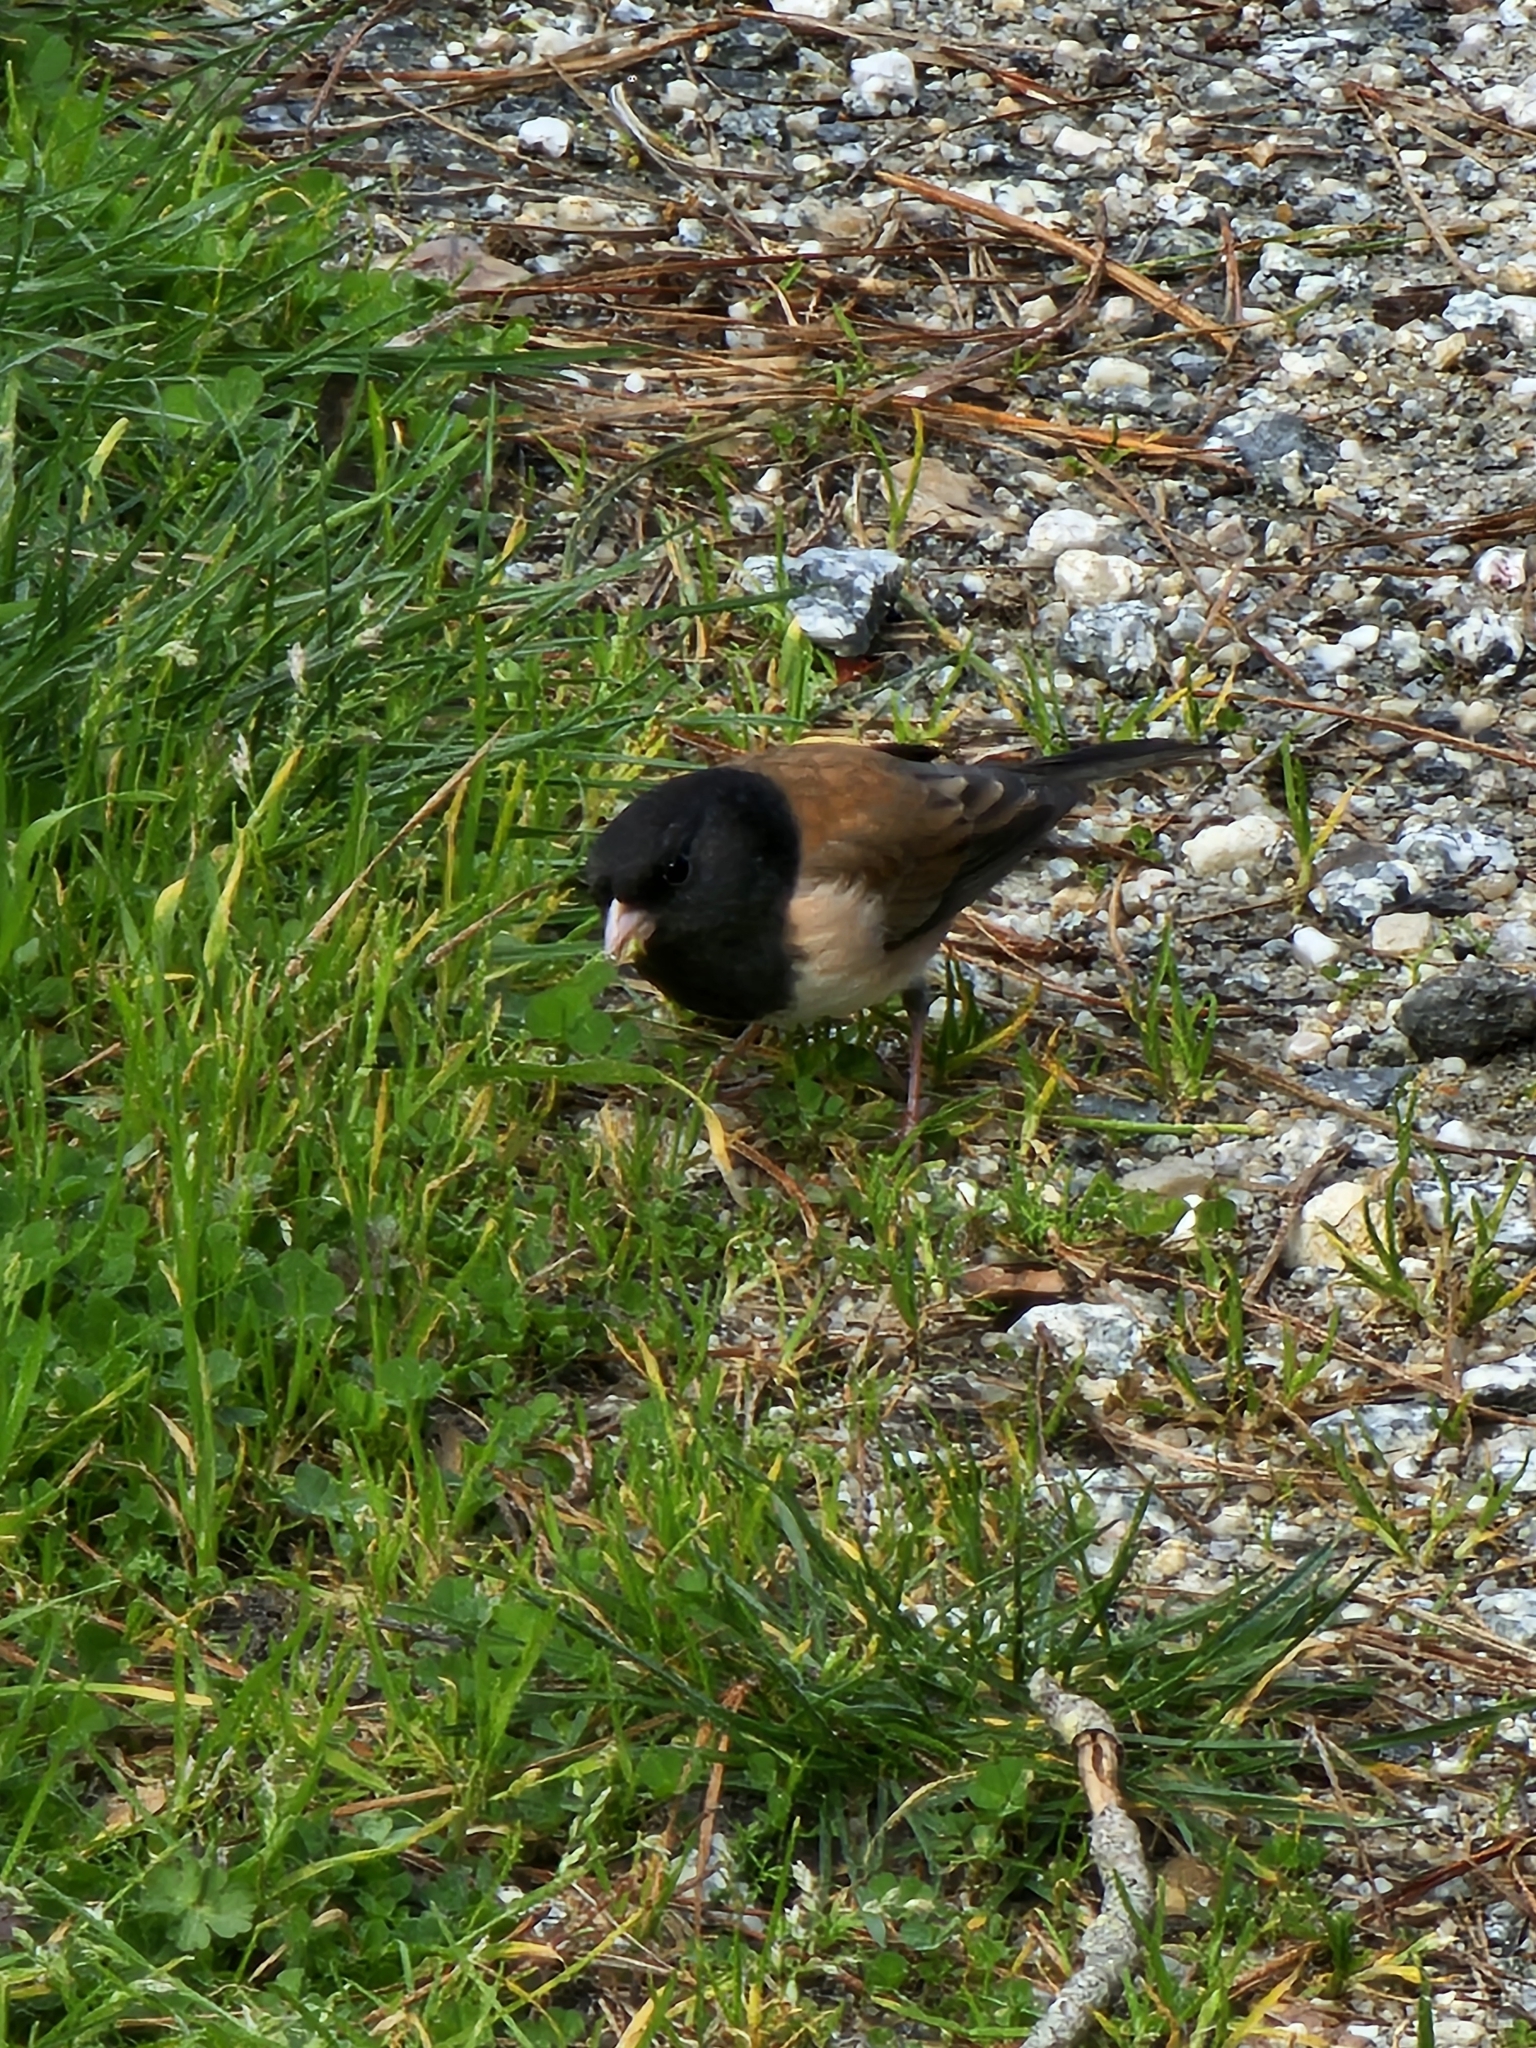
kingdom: Animalia
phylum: Chordata
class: Aves
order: Passeriformes
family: Passerellidae
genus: Junco
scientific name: Junco hyemalis
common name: Dark-eyed junco
